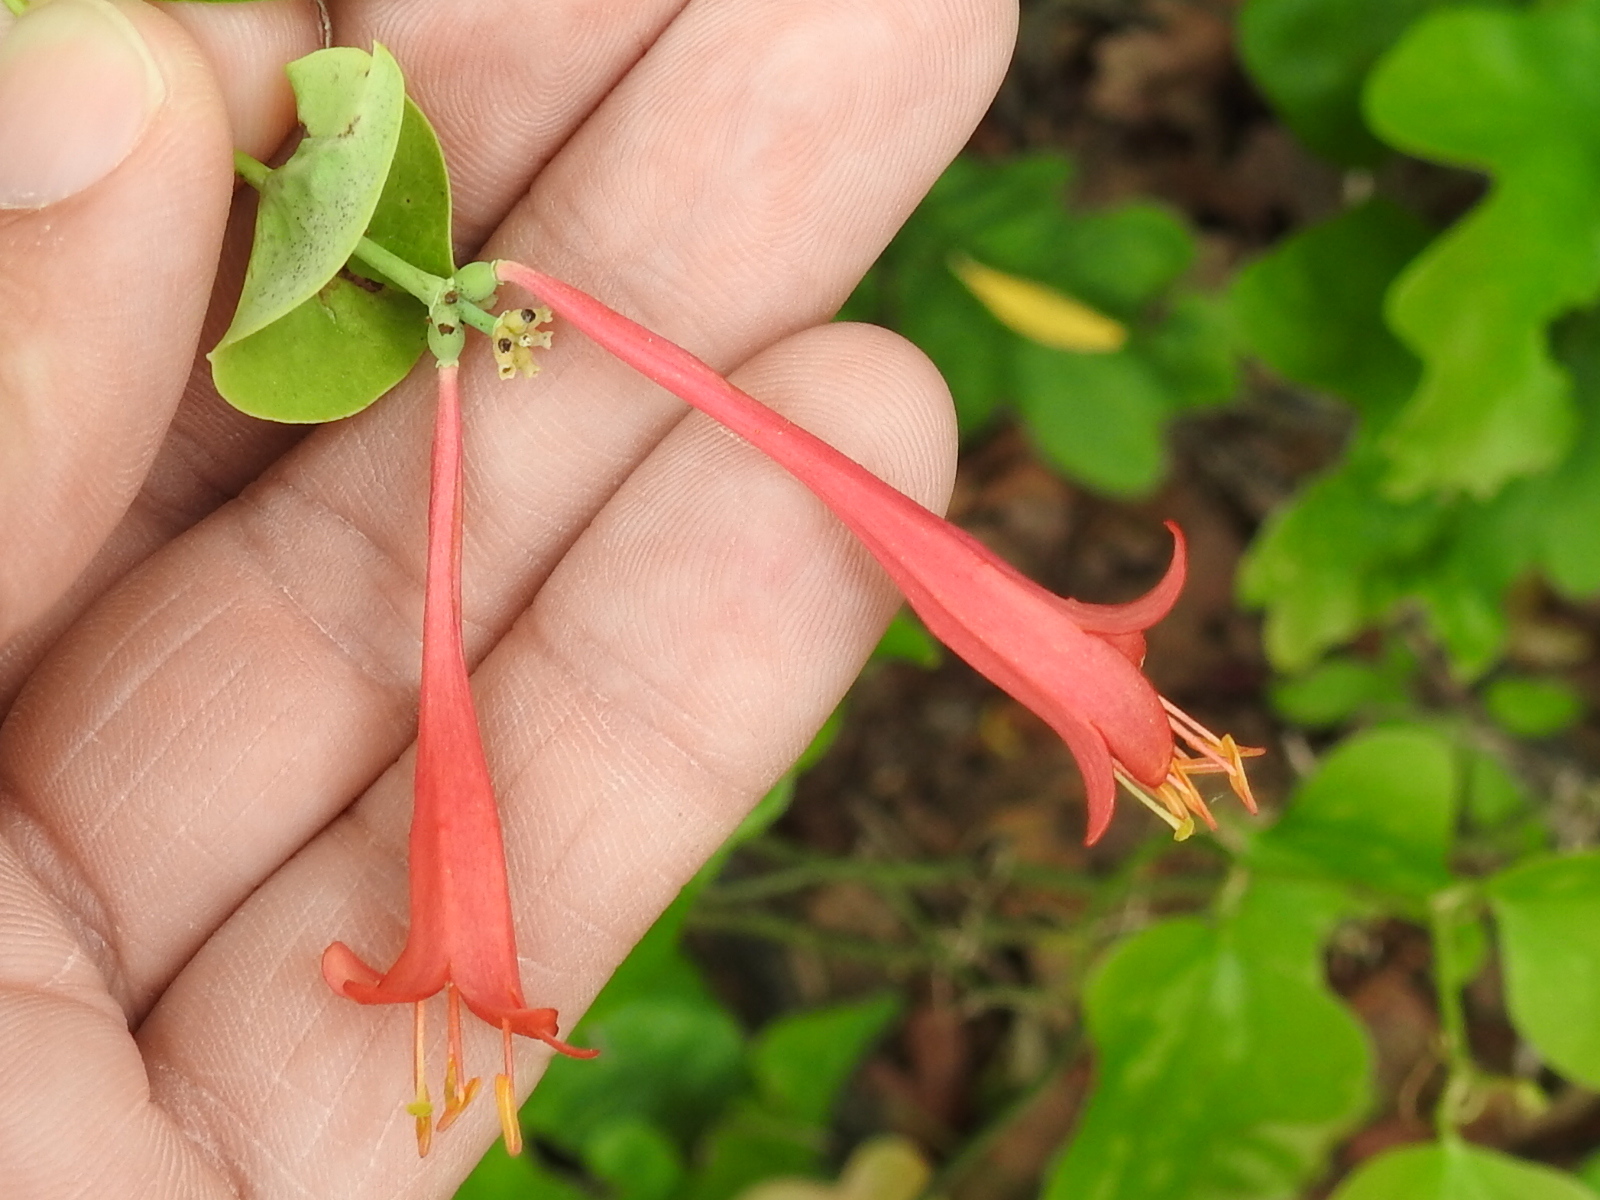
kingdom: Plantae
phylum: Tracheophyta
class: Magnoliopsida
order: Dipsacales
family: Caprifoliaceae
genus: Lonicera
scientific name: Lonicera sempervirens
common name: Coral honeysuckle
